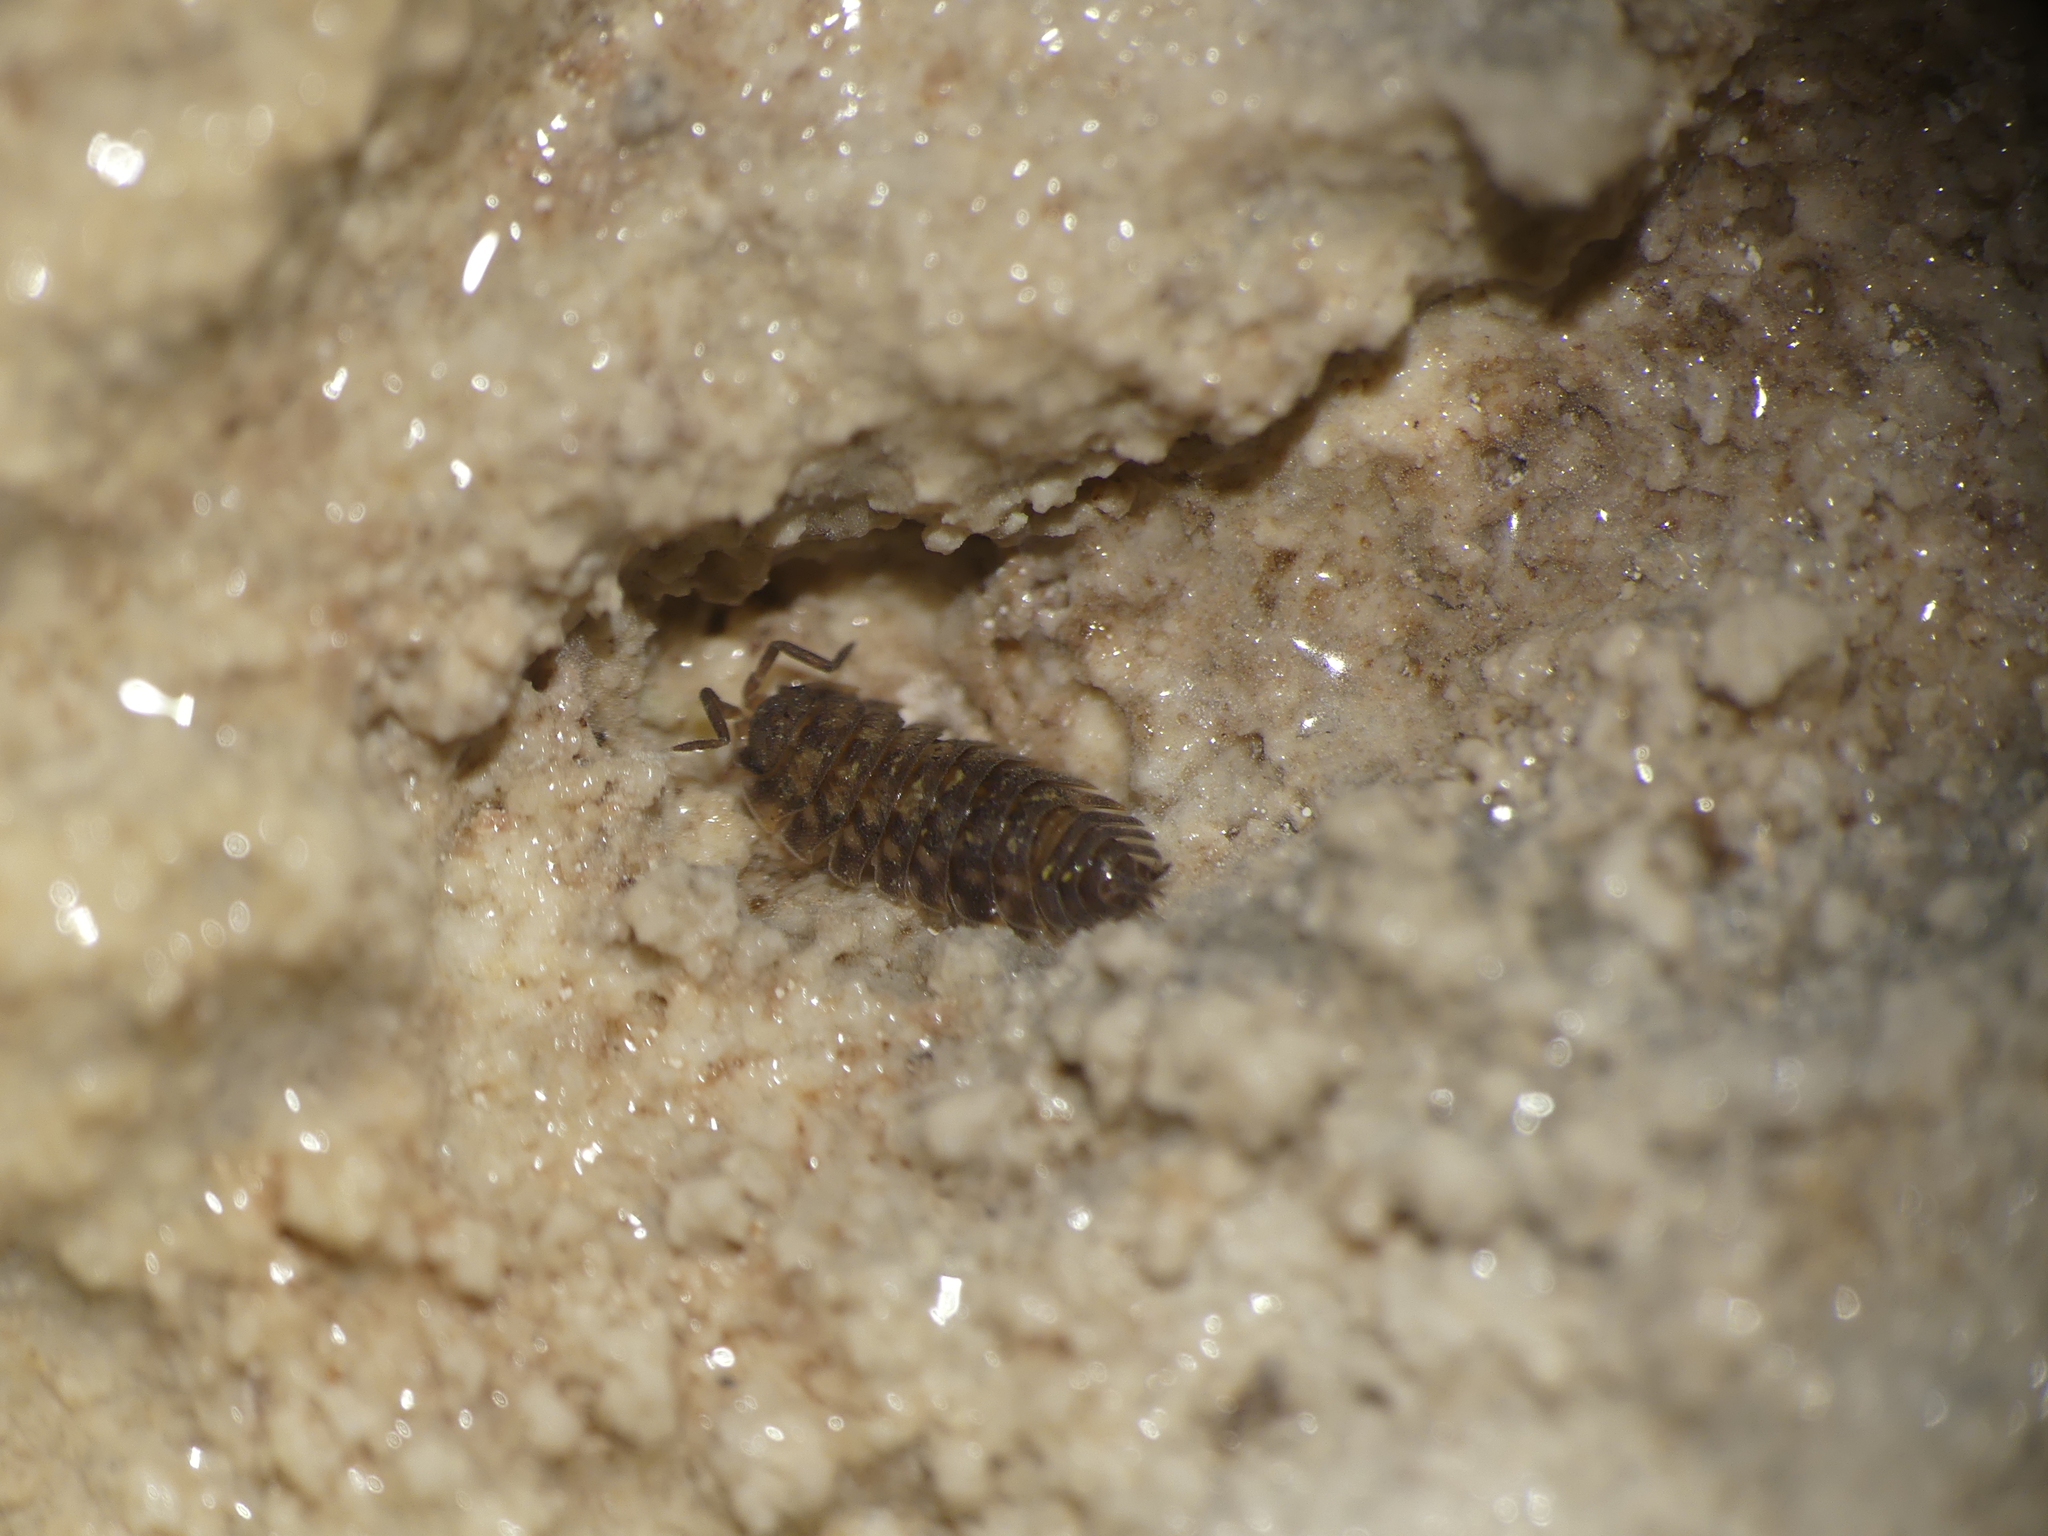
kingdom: Animalia
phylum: Arthropoda
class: Malacostraca
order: Isopoda
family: Oniscidae
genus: Oniscus
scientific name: Oniscus asellus
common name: Common shiny woodlouse
